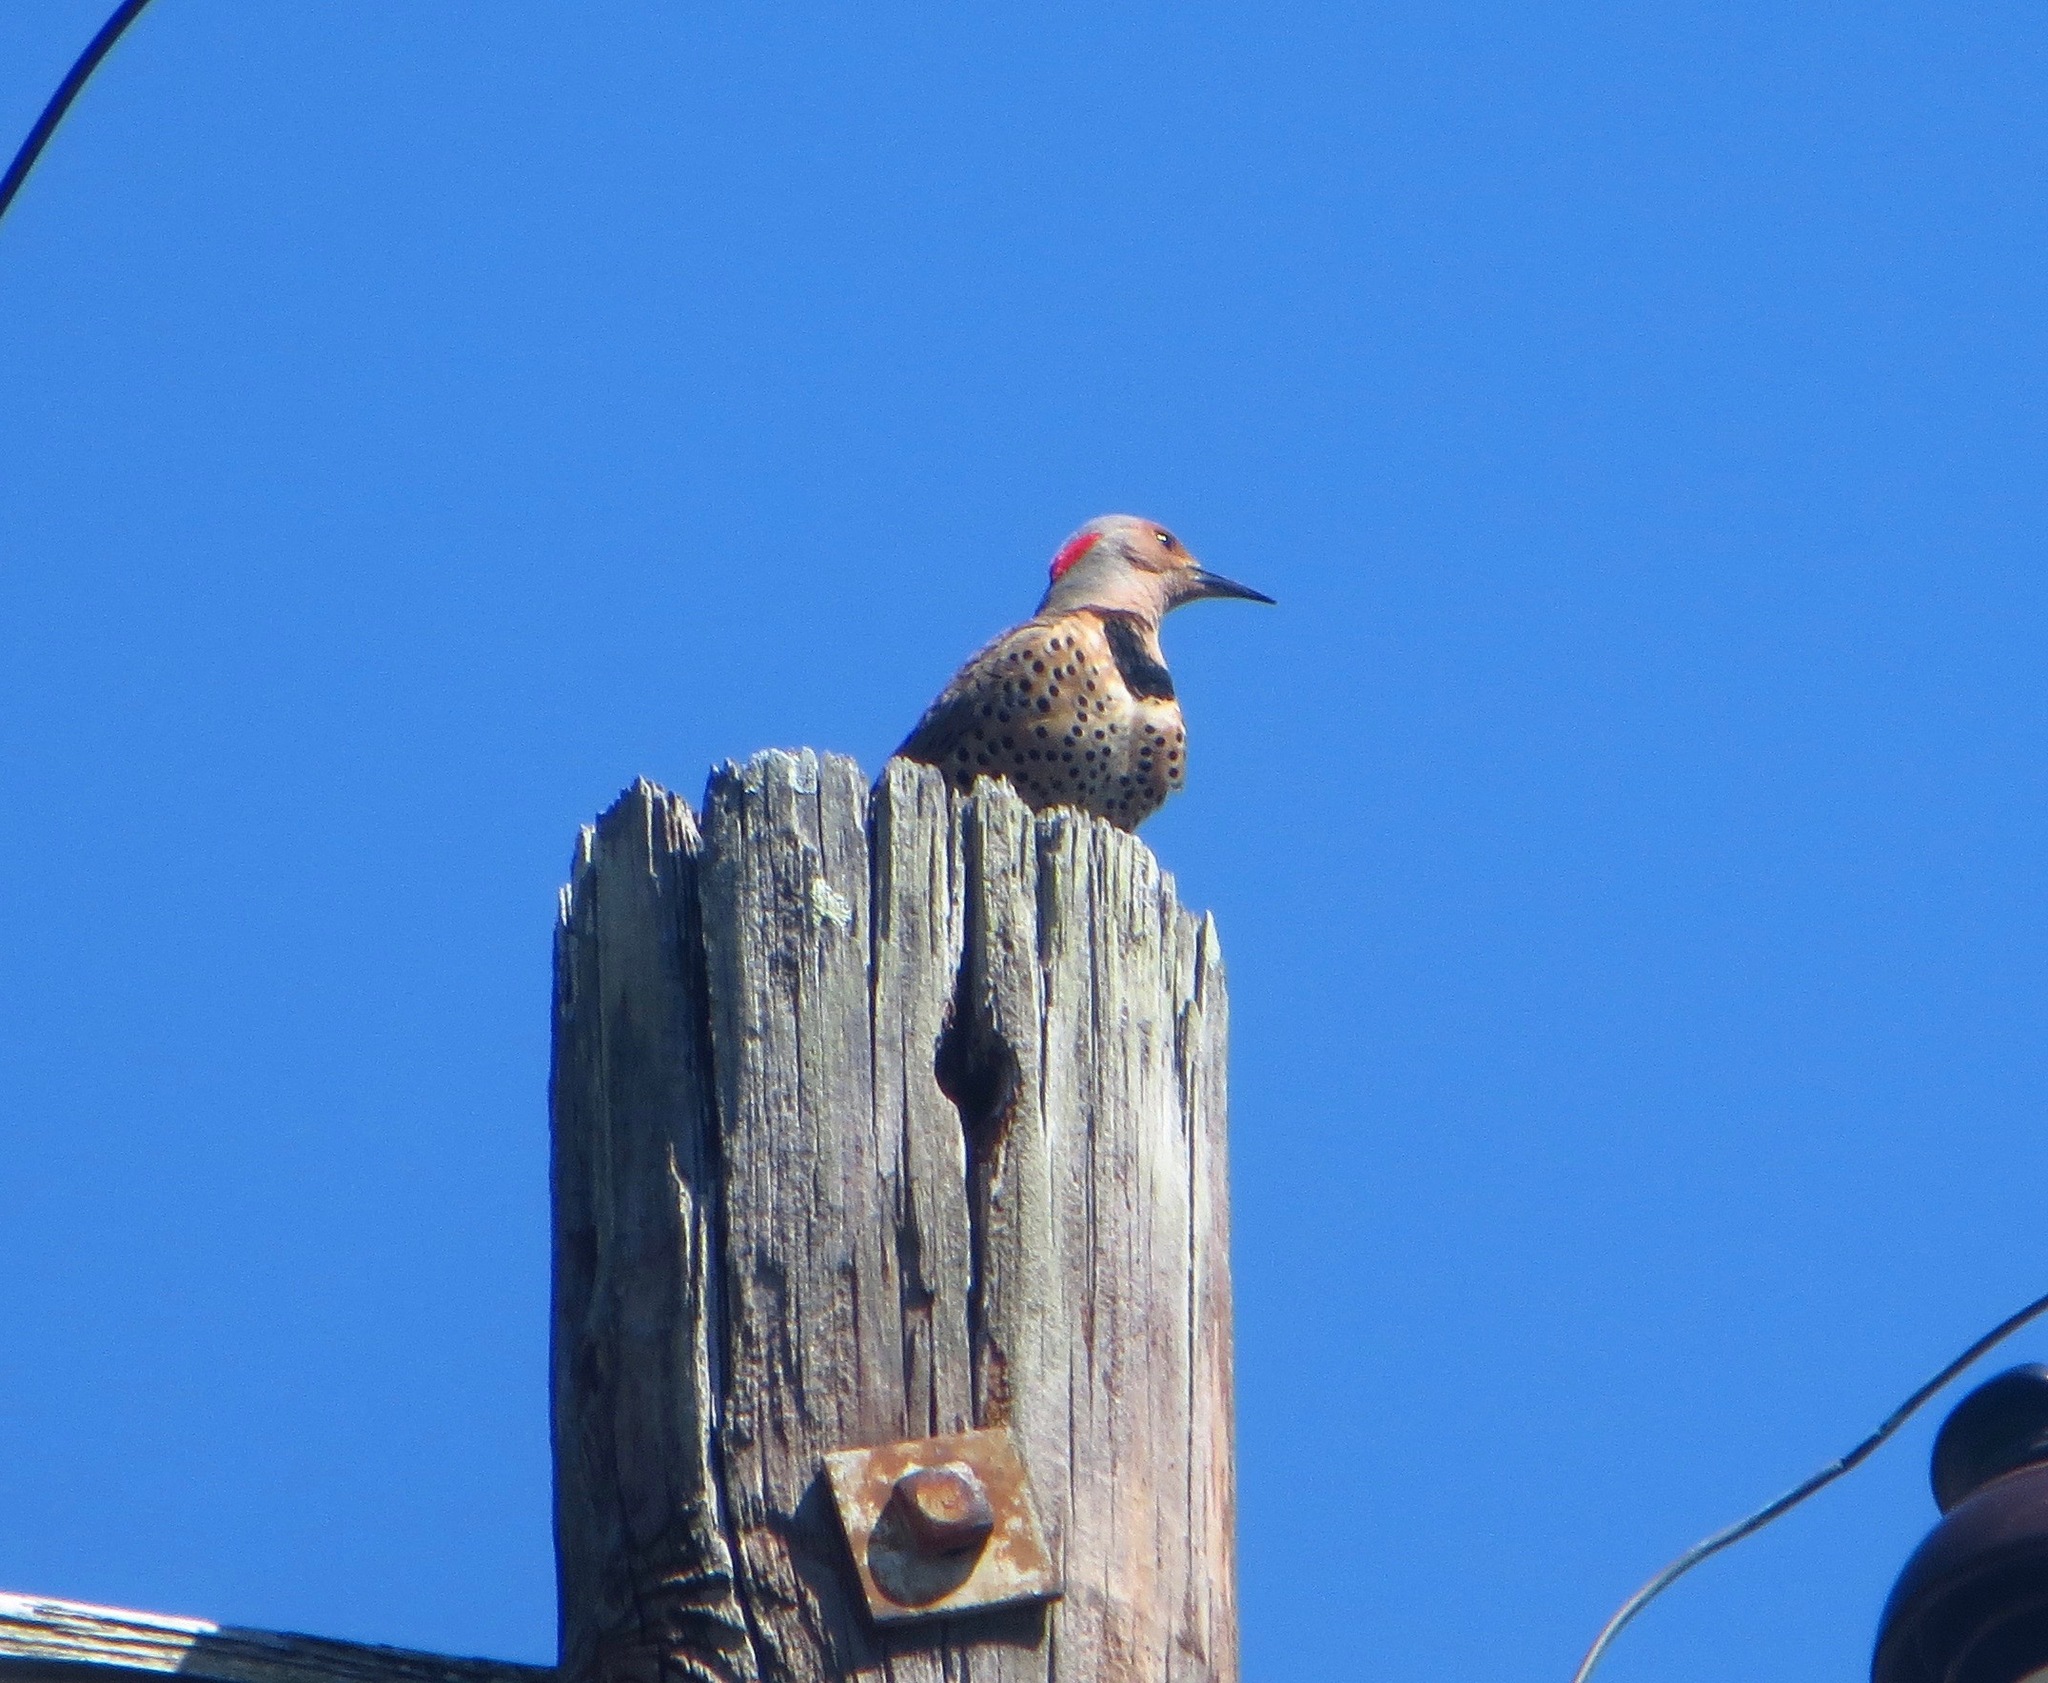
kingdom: Animalia
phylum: Chordata
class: Aves
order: Piciformes
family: Picidae
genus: Colaptes
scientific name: Colaptes auratus
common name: Northern flicker
